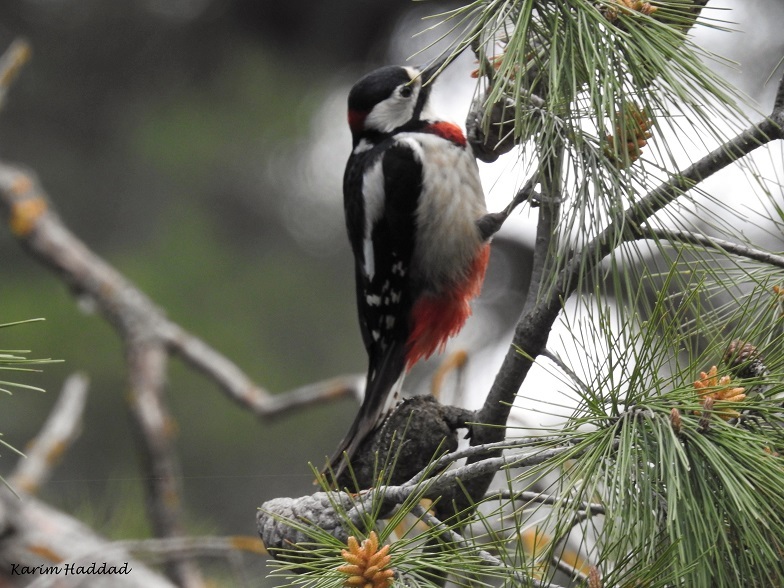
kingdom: Animalia
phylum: Chordata
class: Aves
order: Piciformes
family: Picidae
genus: Dendrocopos
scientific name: Dendrocopos major
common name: Great spotted woodpecker
